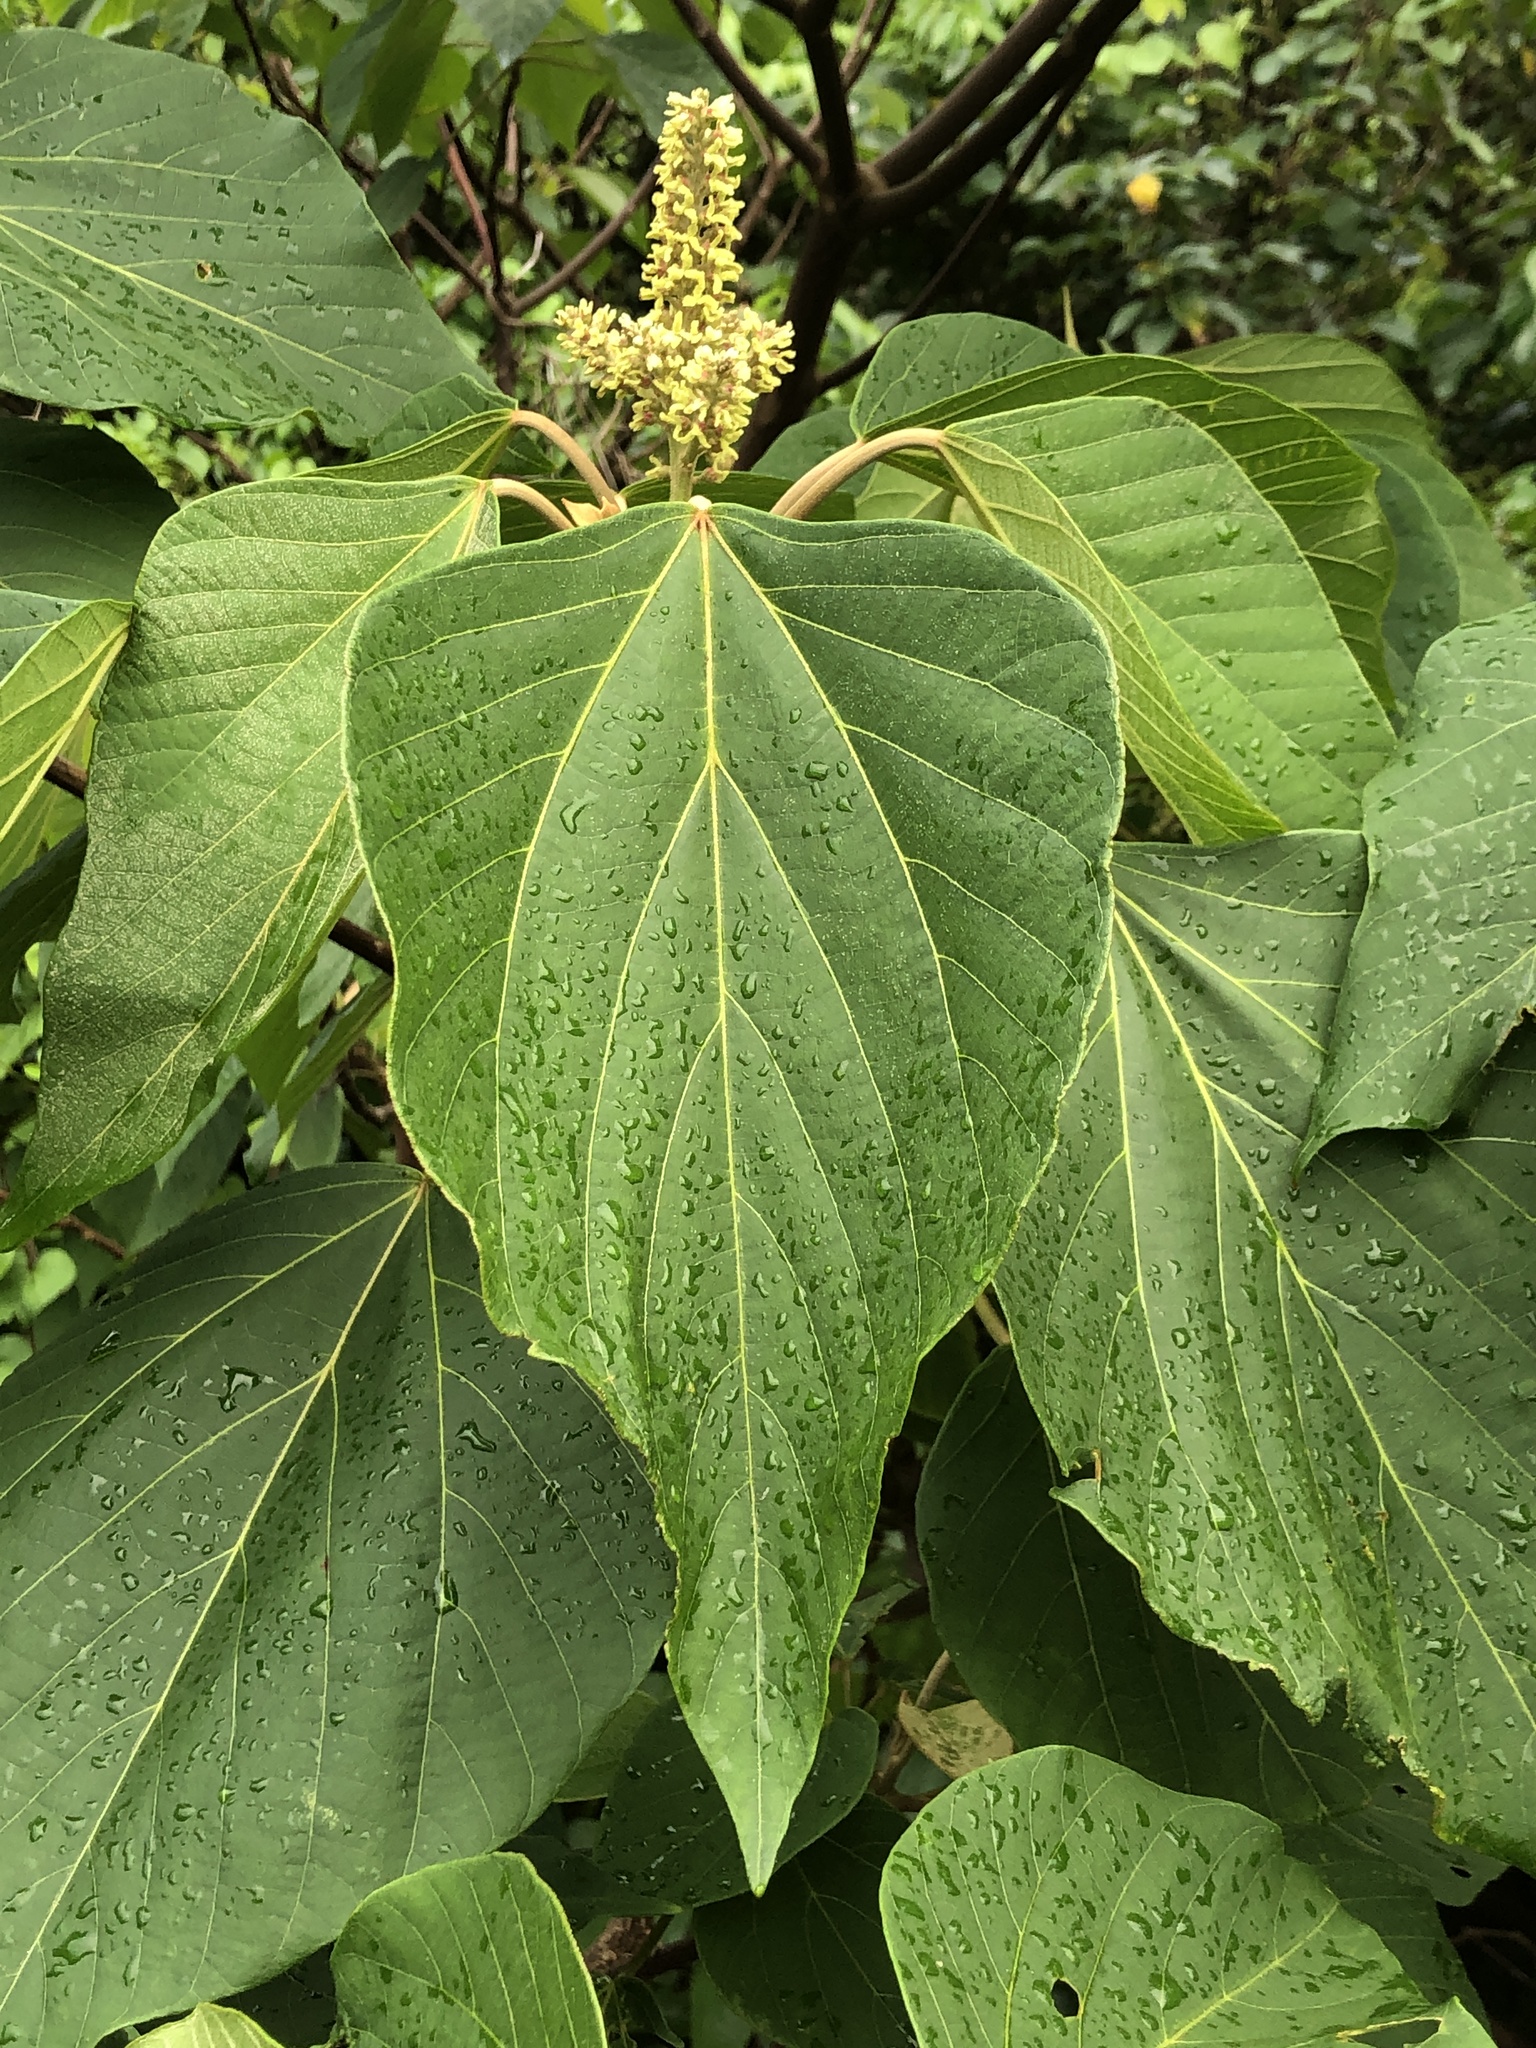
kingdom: Plantae
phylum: Tracheophyta
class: Magnoliopsida
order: Malpighiales
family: Euphorbiaceae
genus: Mallotus
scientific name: Mallotus japonicus
